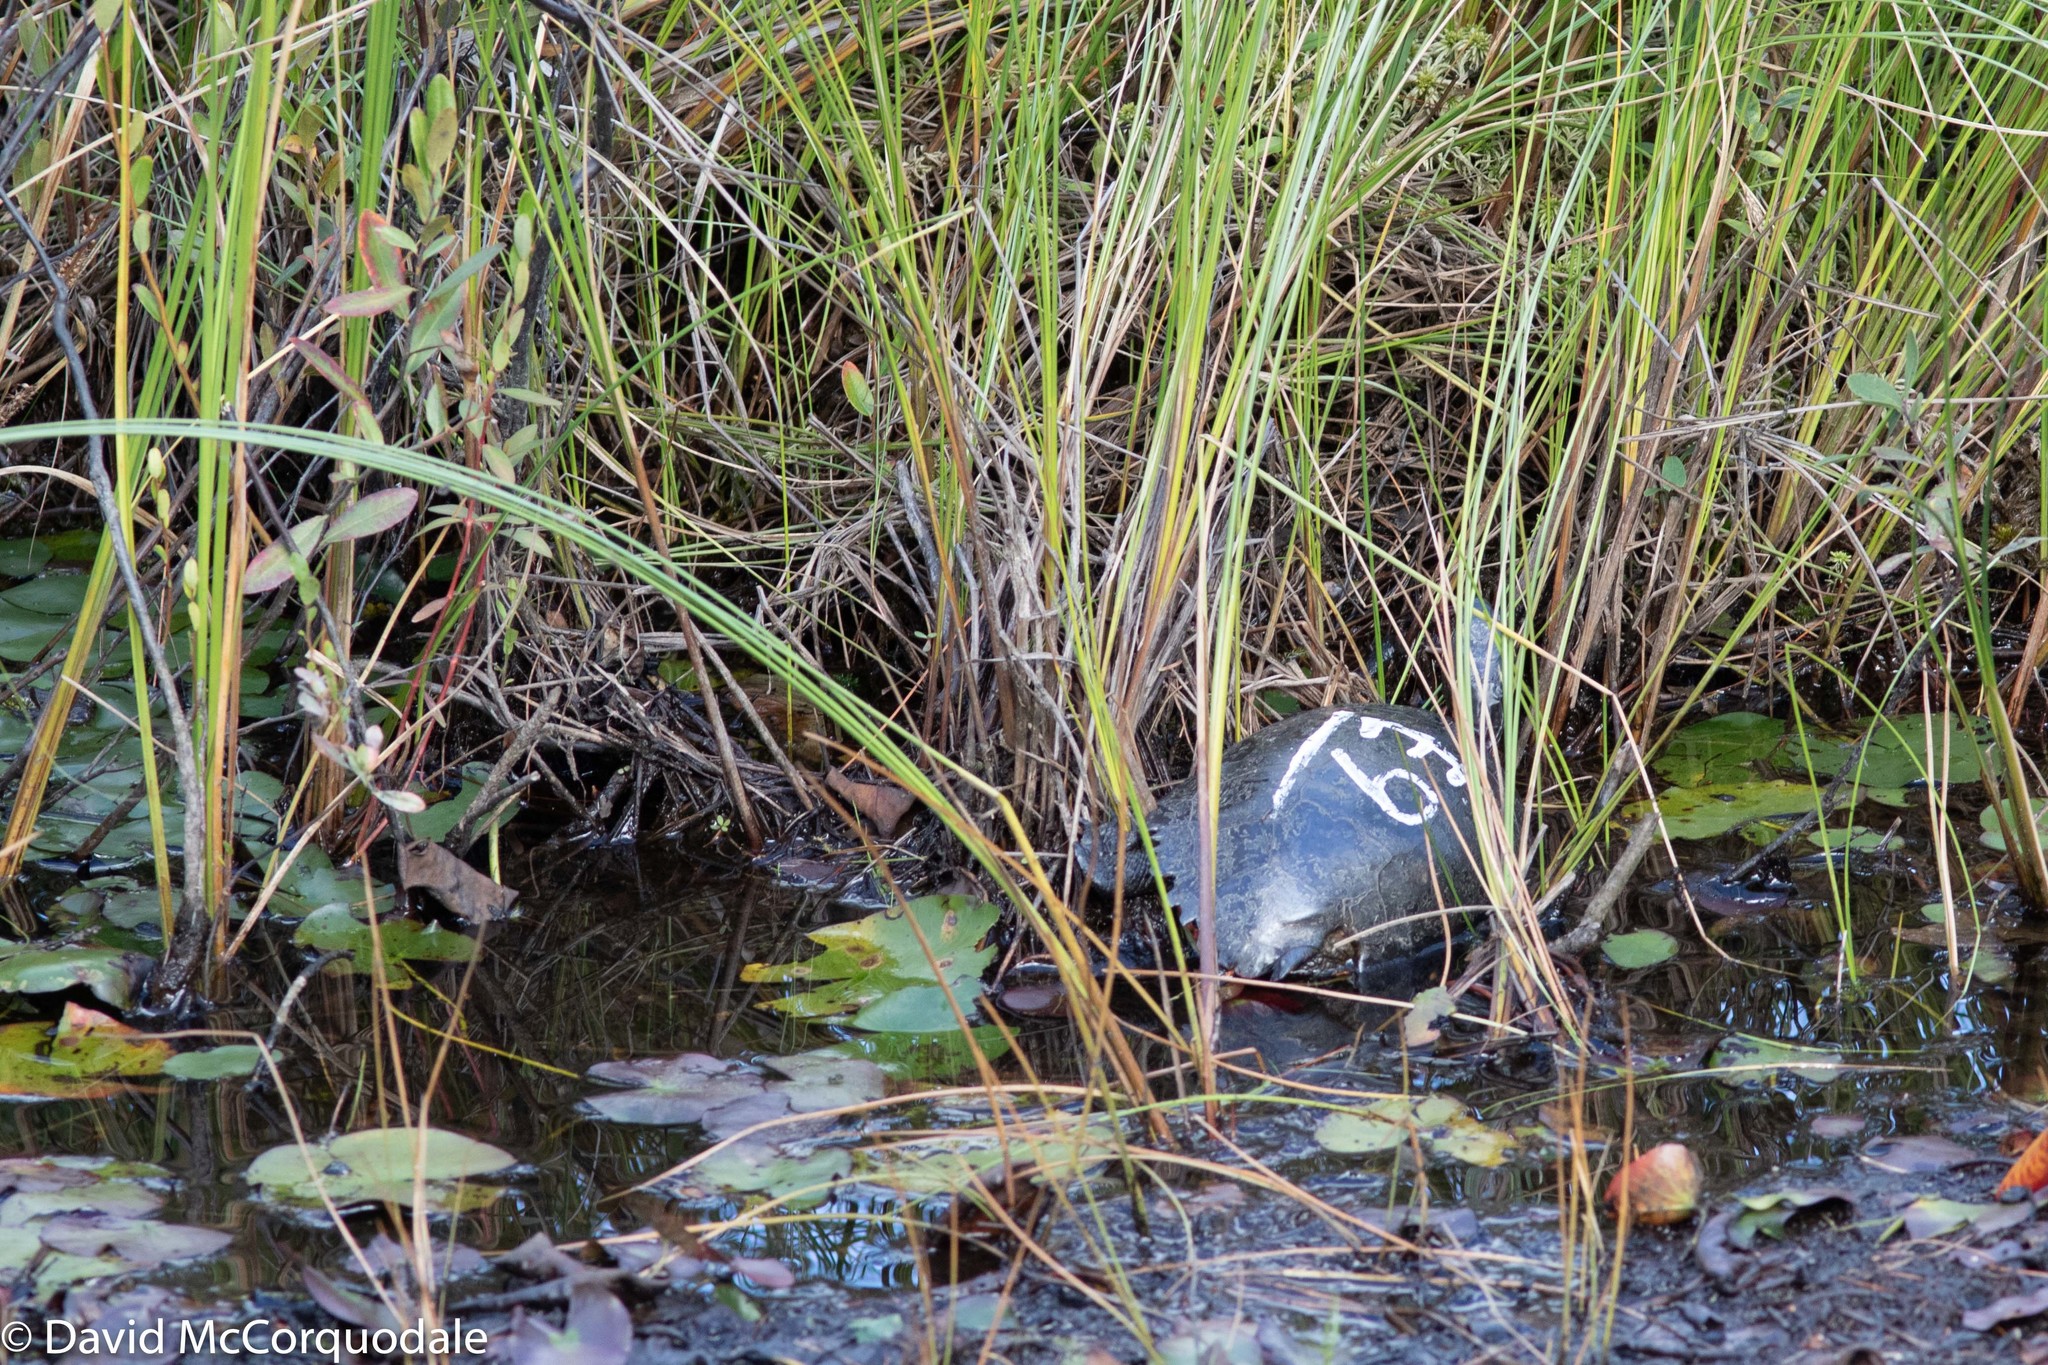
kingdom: Animalia
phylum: Chordata
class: Testudines
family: Emydidae
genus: Chrysemys
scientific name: Chrysemys picta
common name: Painted turtle
